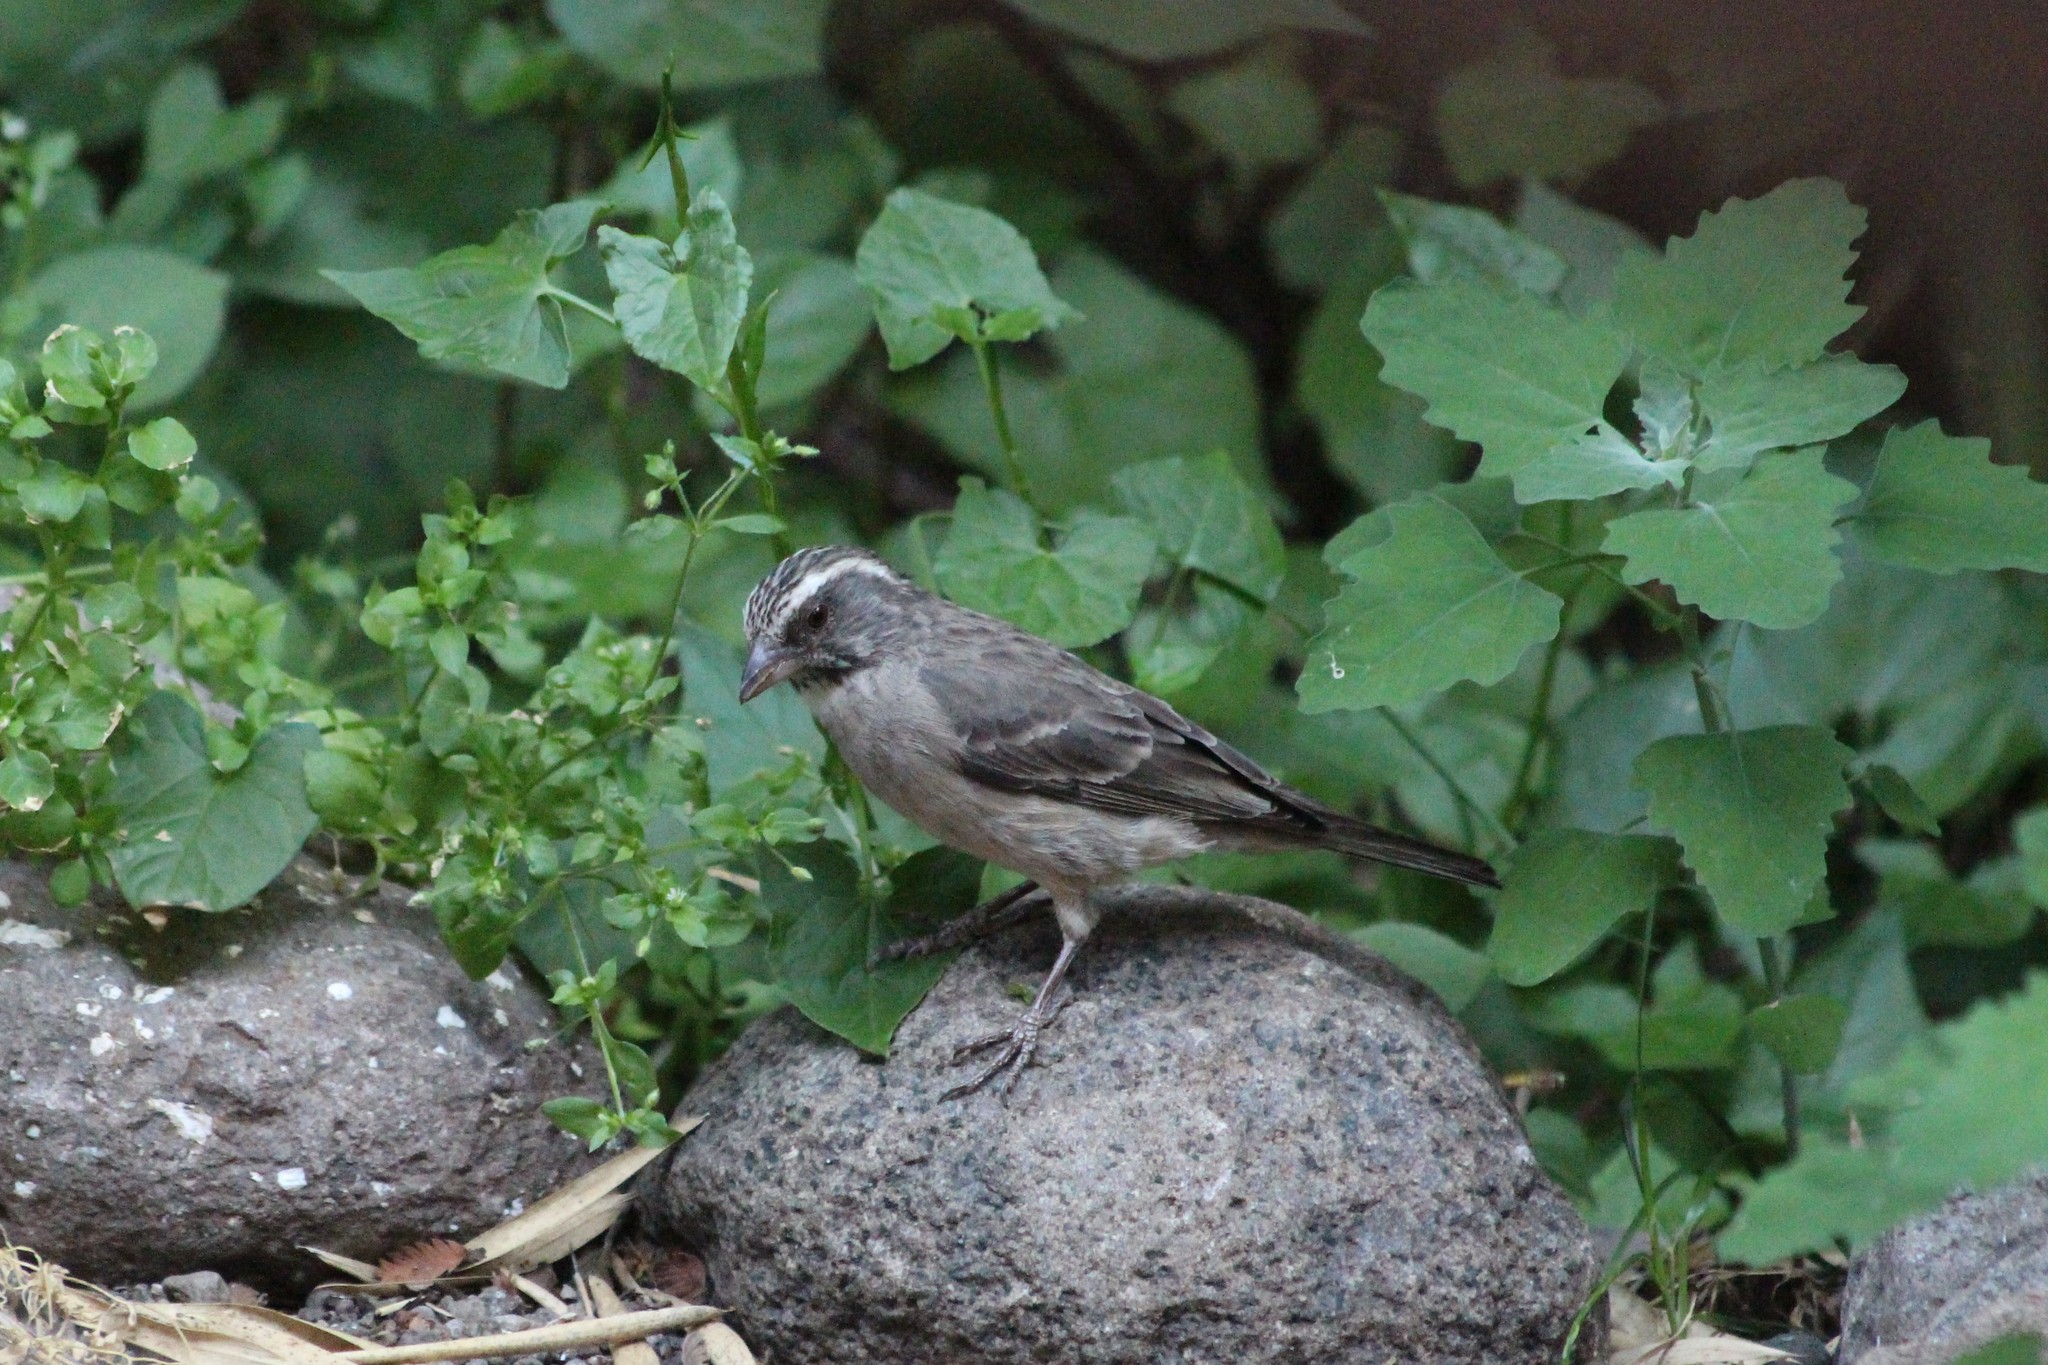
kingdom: Animalia
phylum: Chordata
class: Aves
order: Passeriformes
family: Fringillidae
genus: Crithagra
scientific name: Crithagra gularis
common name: Streaky-headed seedeater
